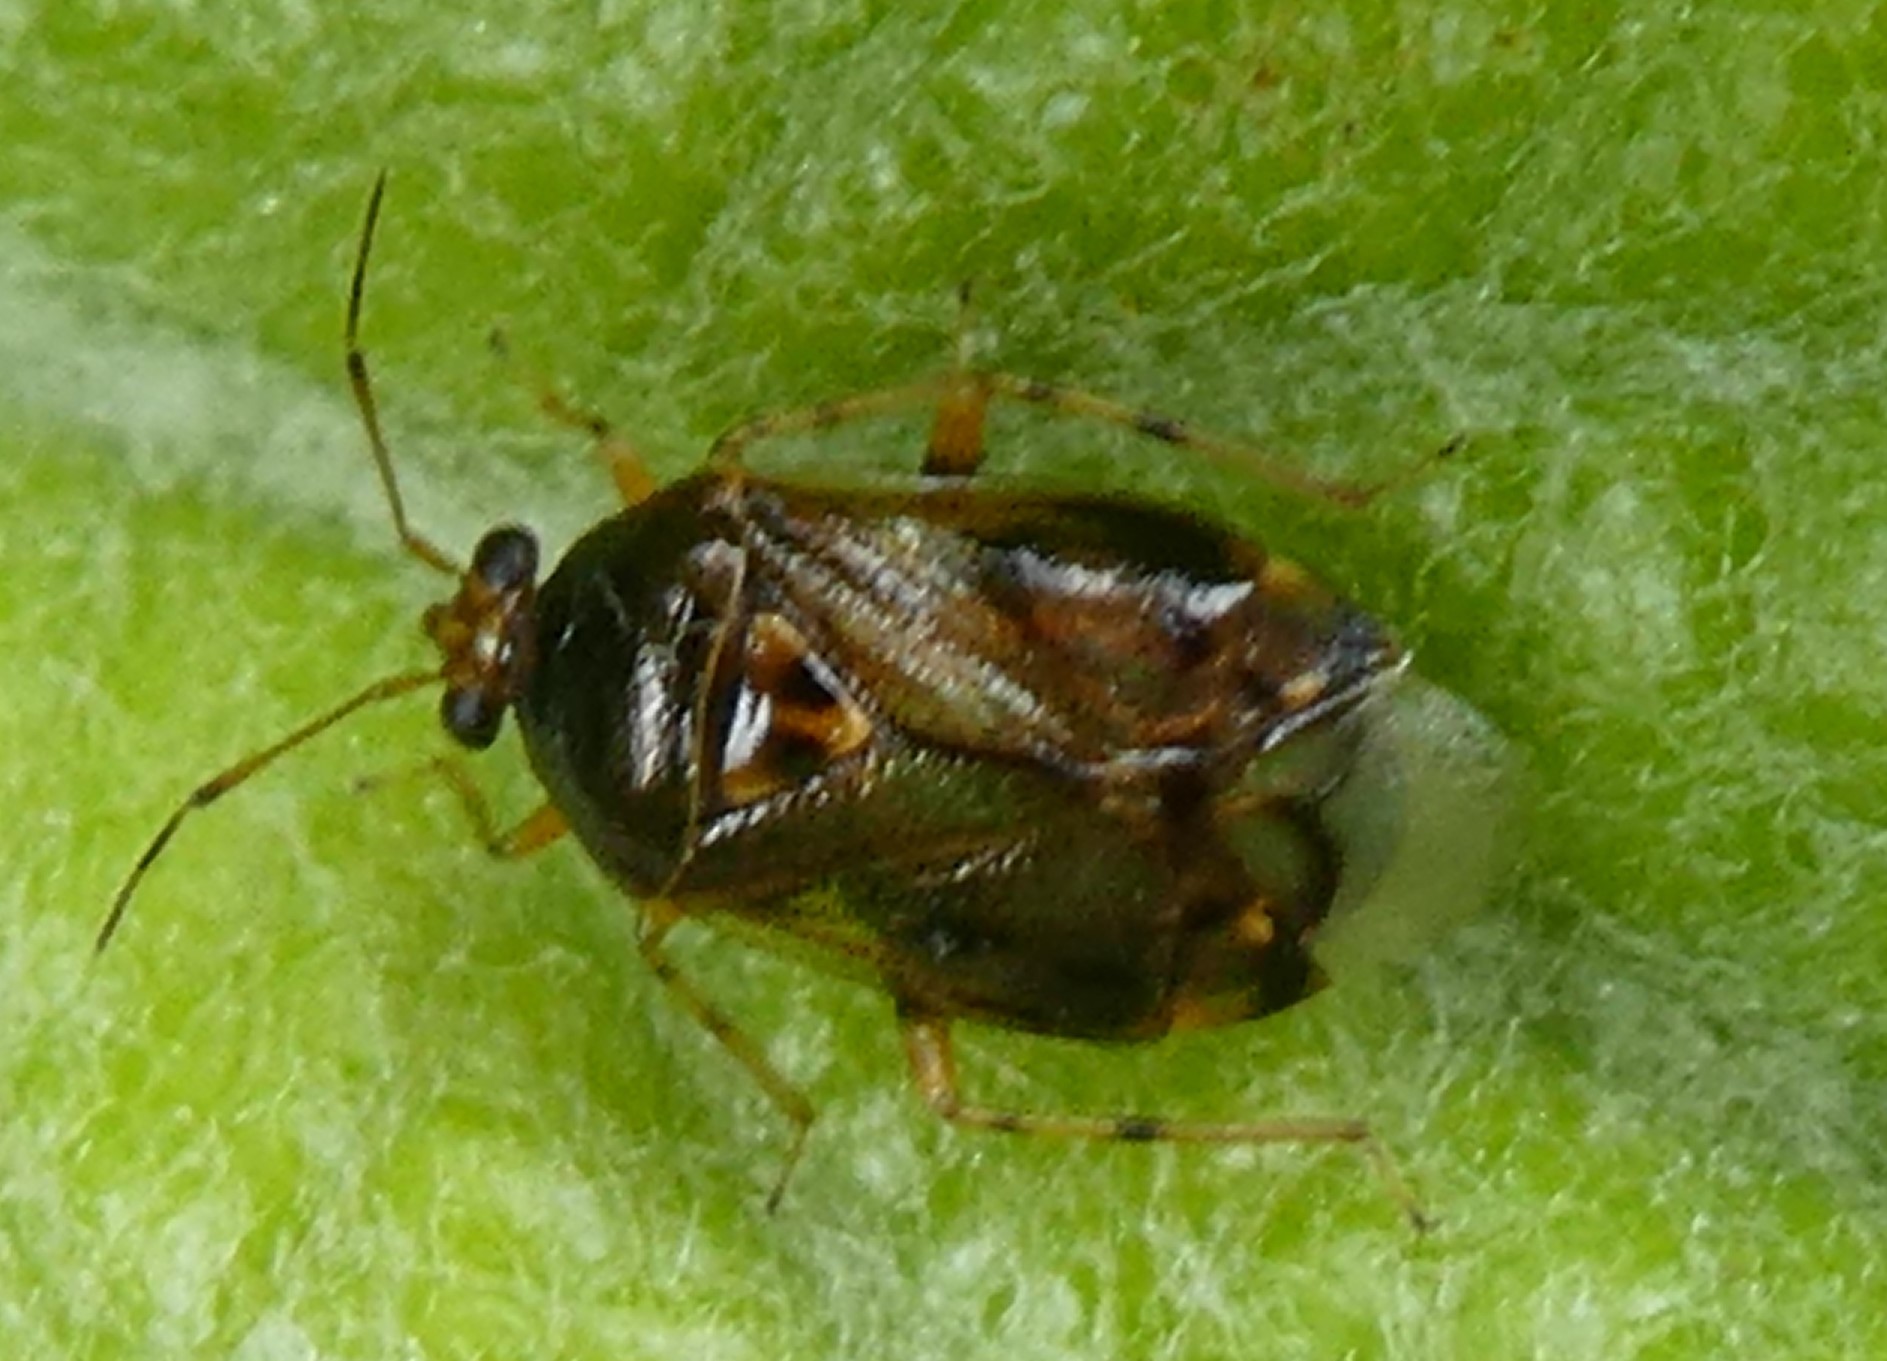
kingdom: Animalia
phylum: Arthropoda
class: Insecta
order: Hemiptera
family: Miridae
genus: Deraeocoris
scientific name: Deraeocoris lutescens
